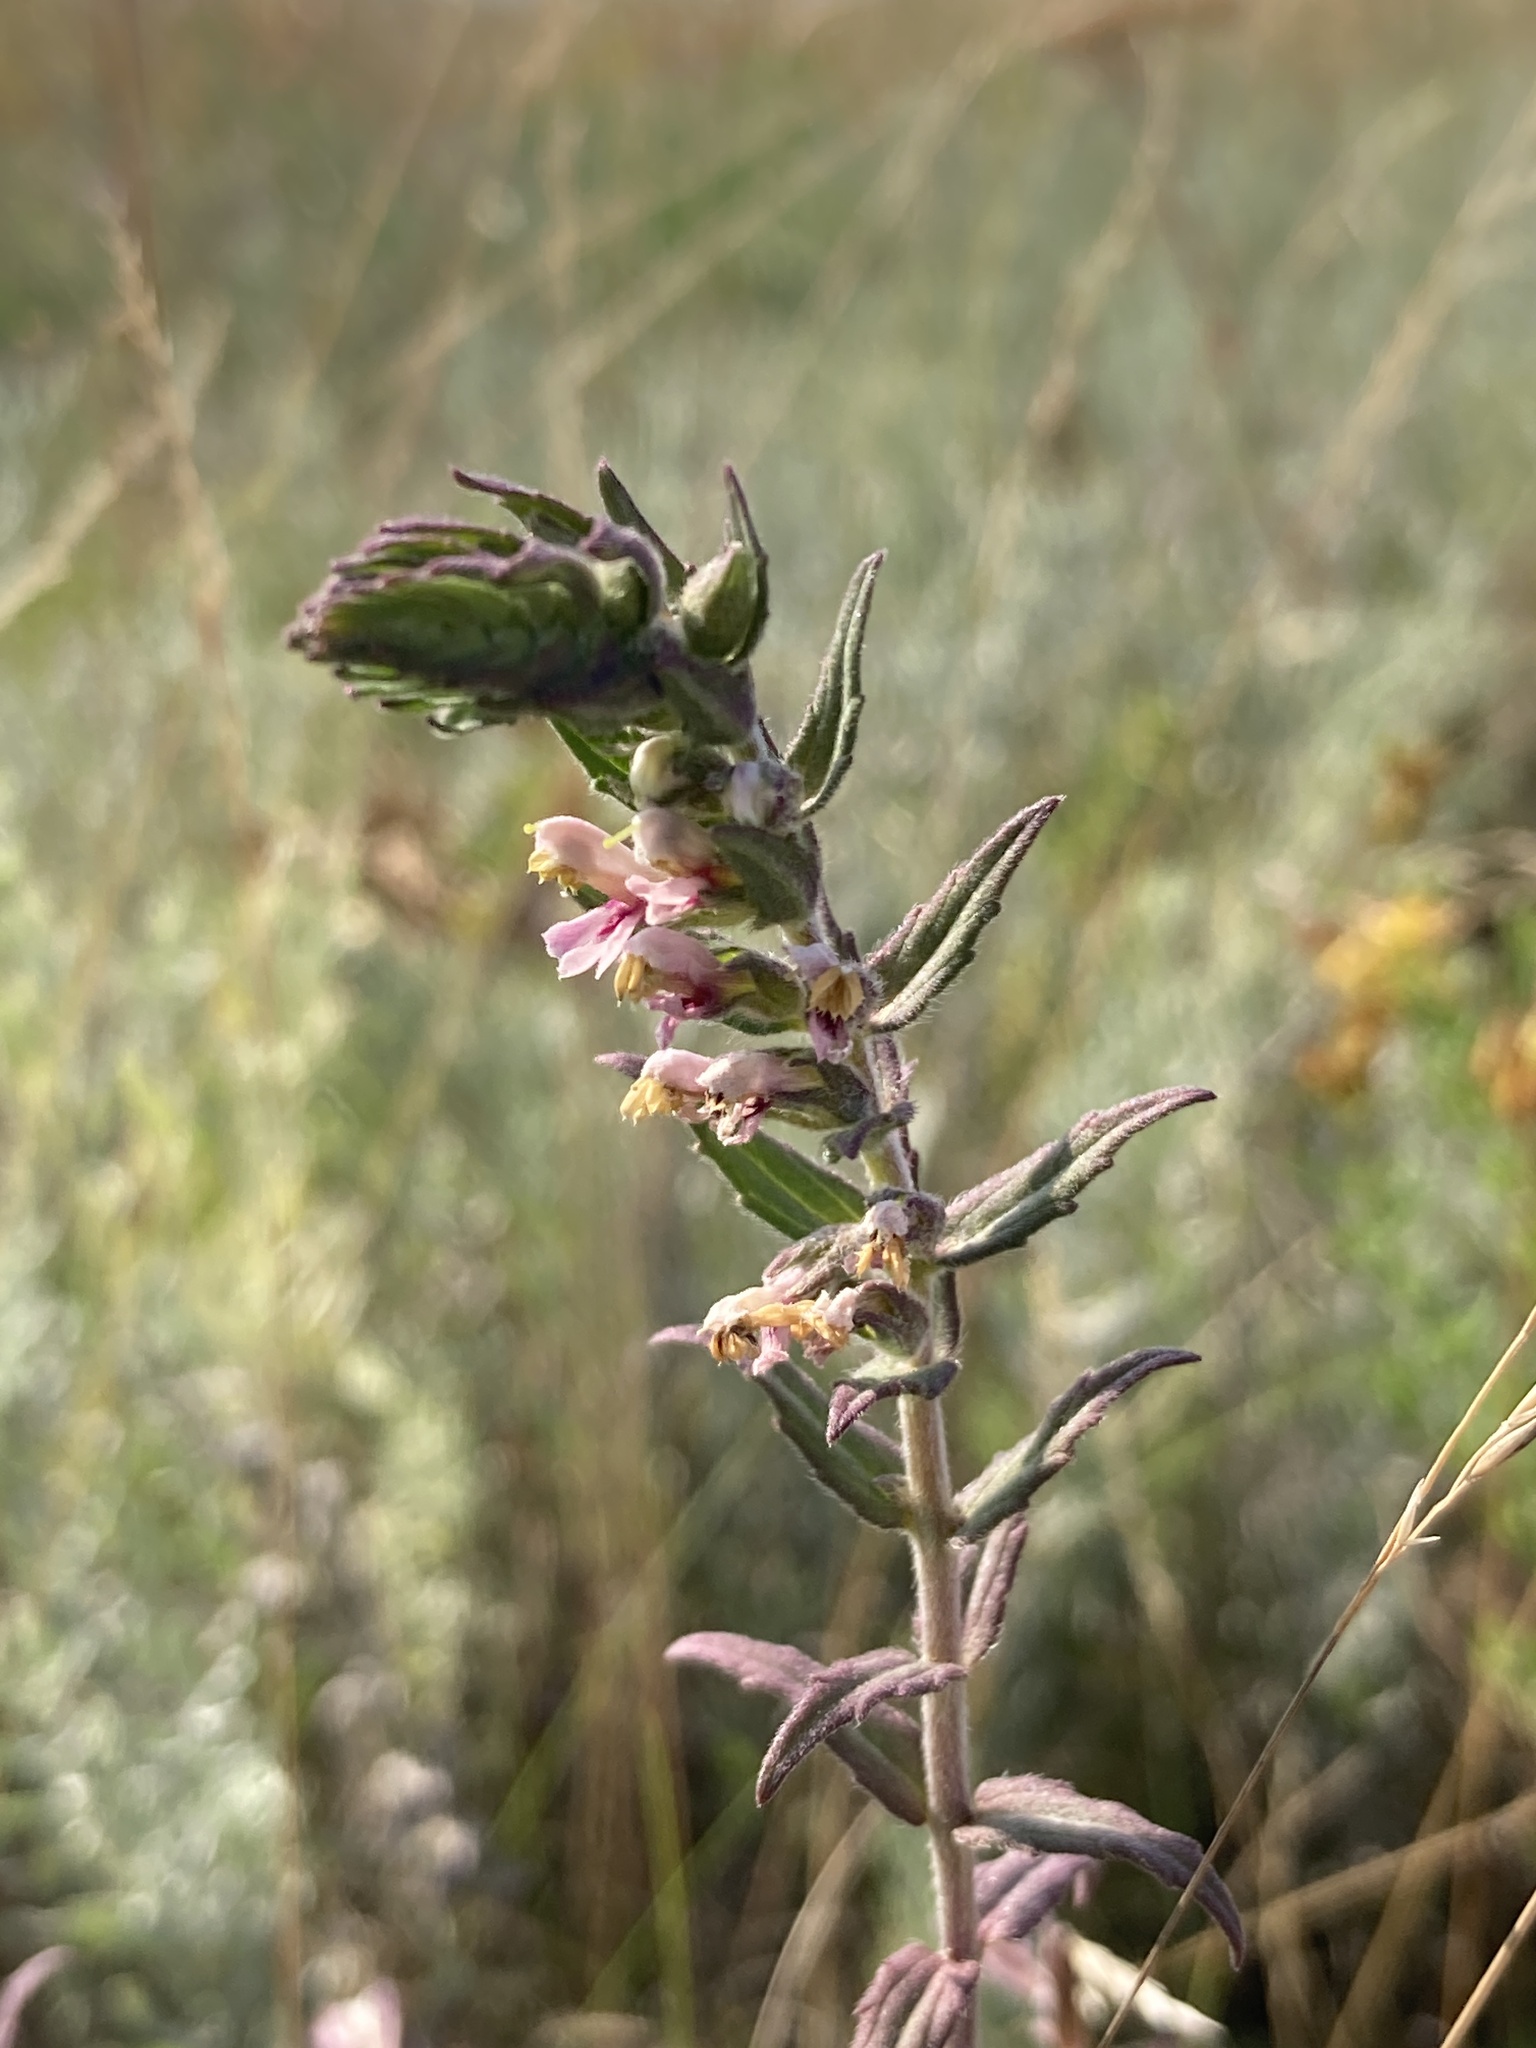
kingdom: Plantae
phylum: Tracheophyta
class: Magnoliopsida
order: Lamiales
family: Orobanchaceae
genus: Odontites
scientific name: Odontites vulgaris
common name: Broomrape
